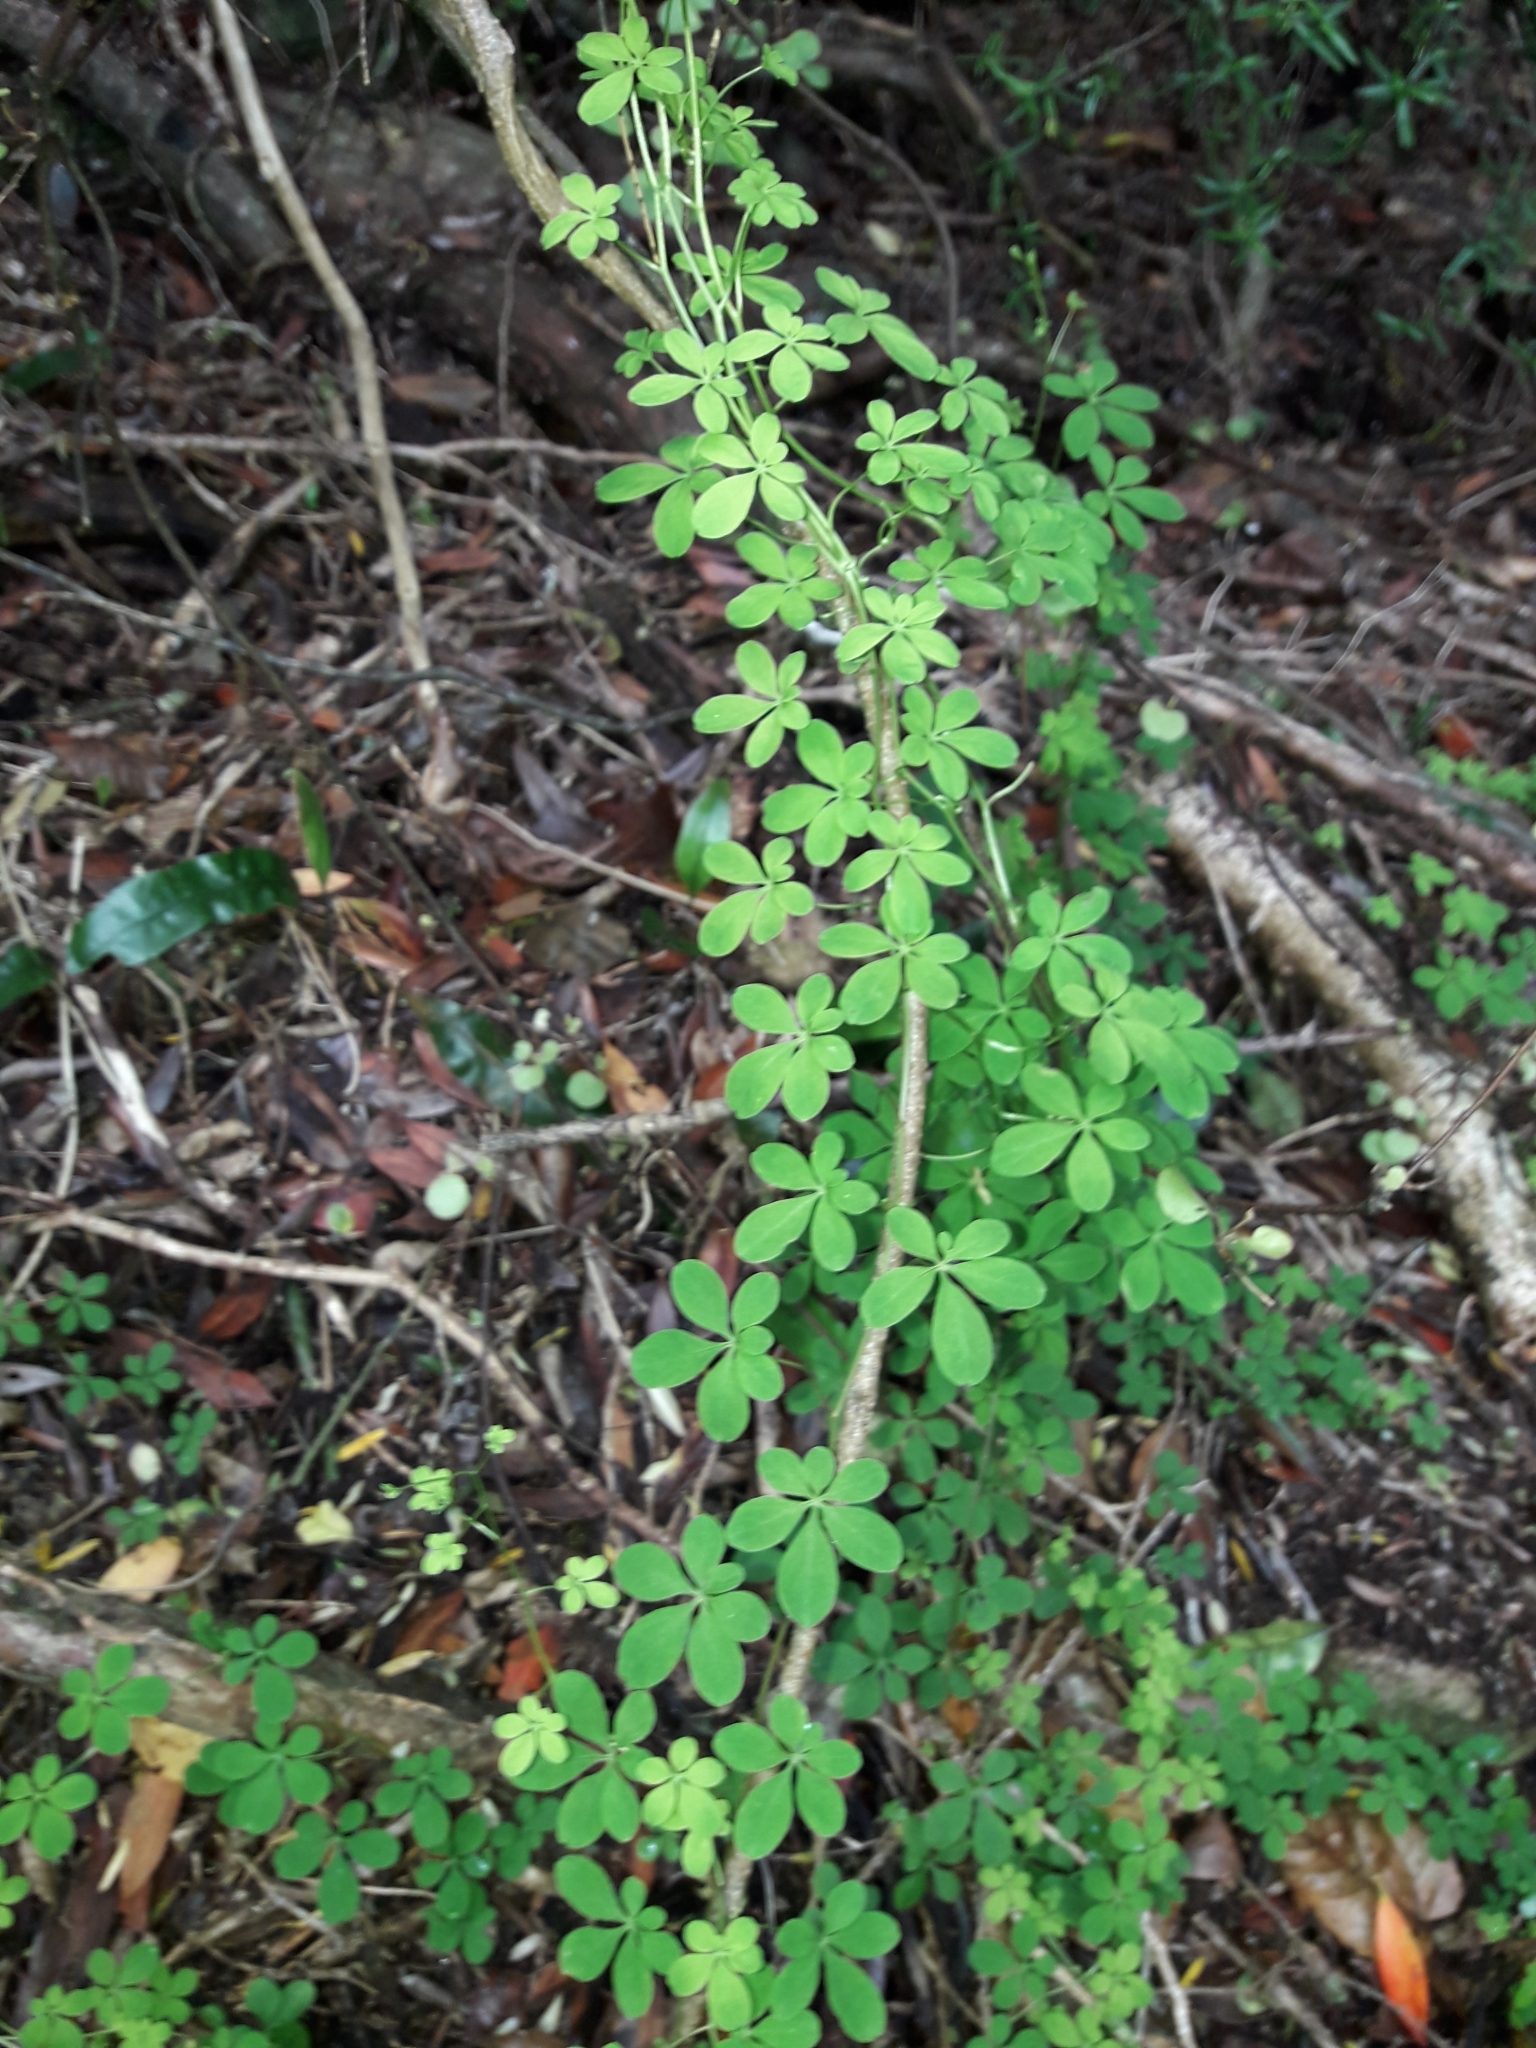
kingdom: Plantae
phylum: Tracheophyta
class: Magnoliopsida
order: Brassicales
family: Tropaeolaceae
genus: Tropaeolum
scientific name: Tropaeolum speciosum
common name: Flame nasturtium
